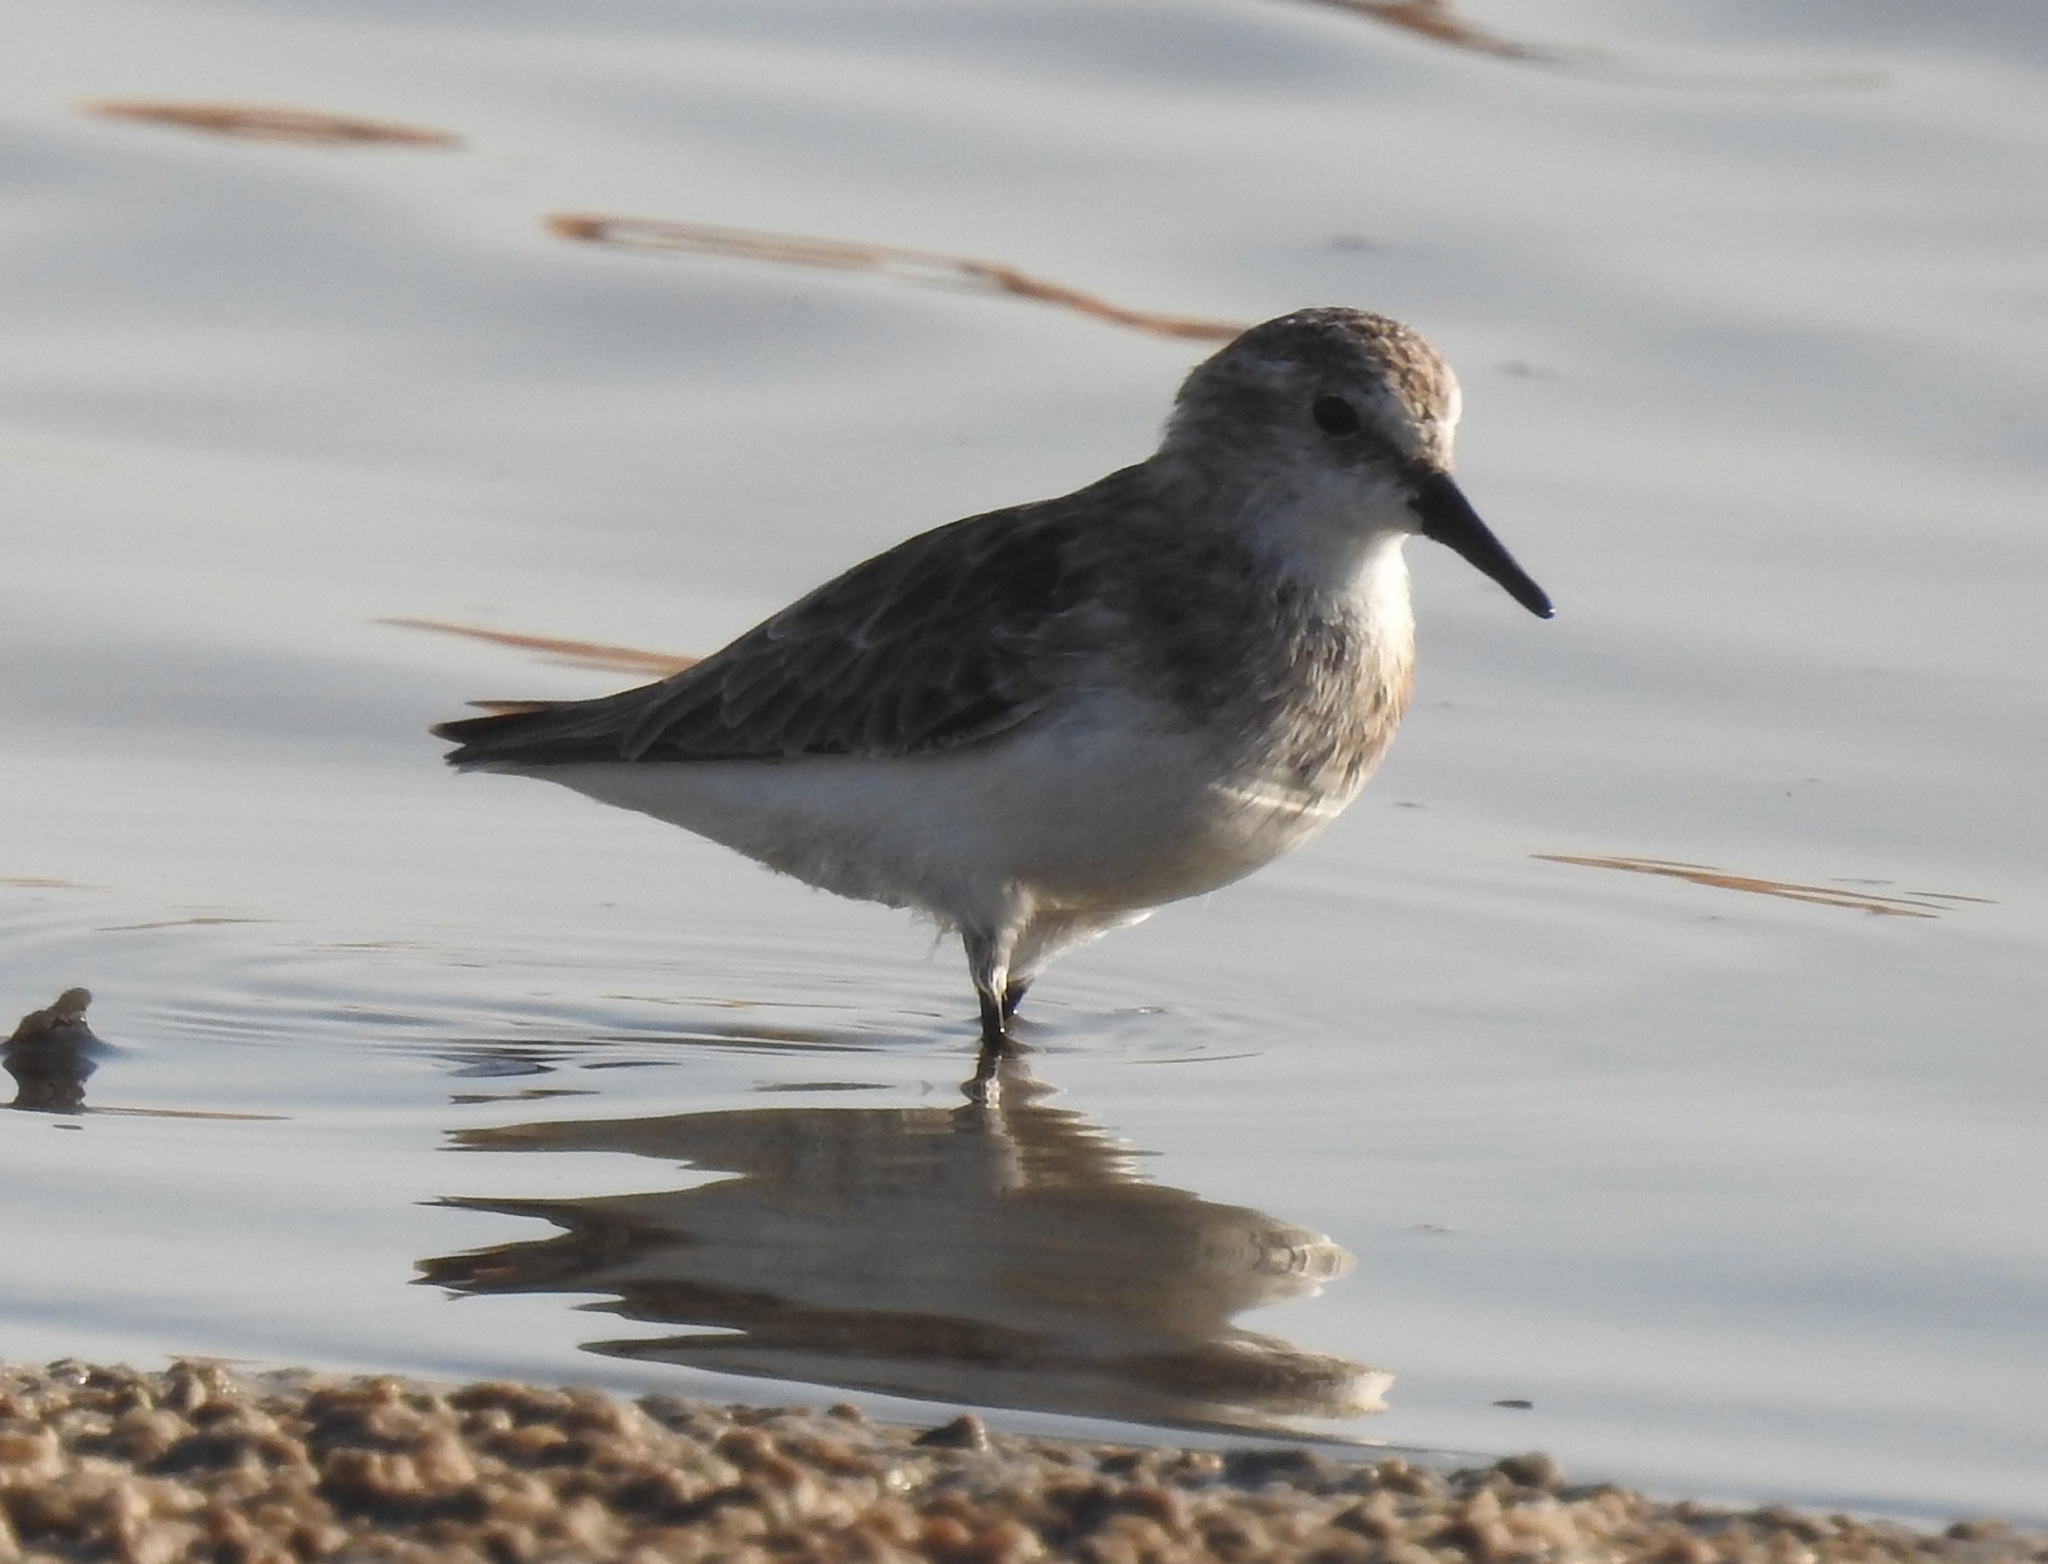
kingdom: Animalia
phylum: Chordata
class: Aves
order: Charadriiformes
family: Scolopacidae
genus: Calidris
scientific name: Calidris minuta
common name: Little stint
